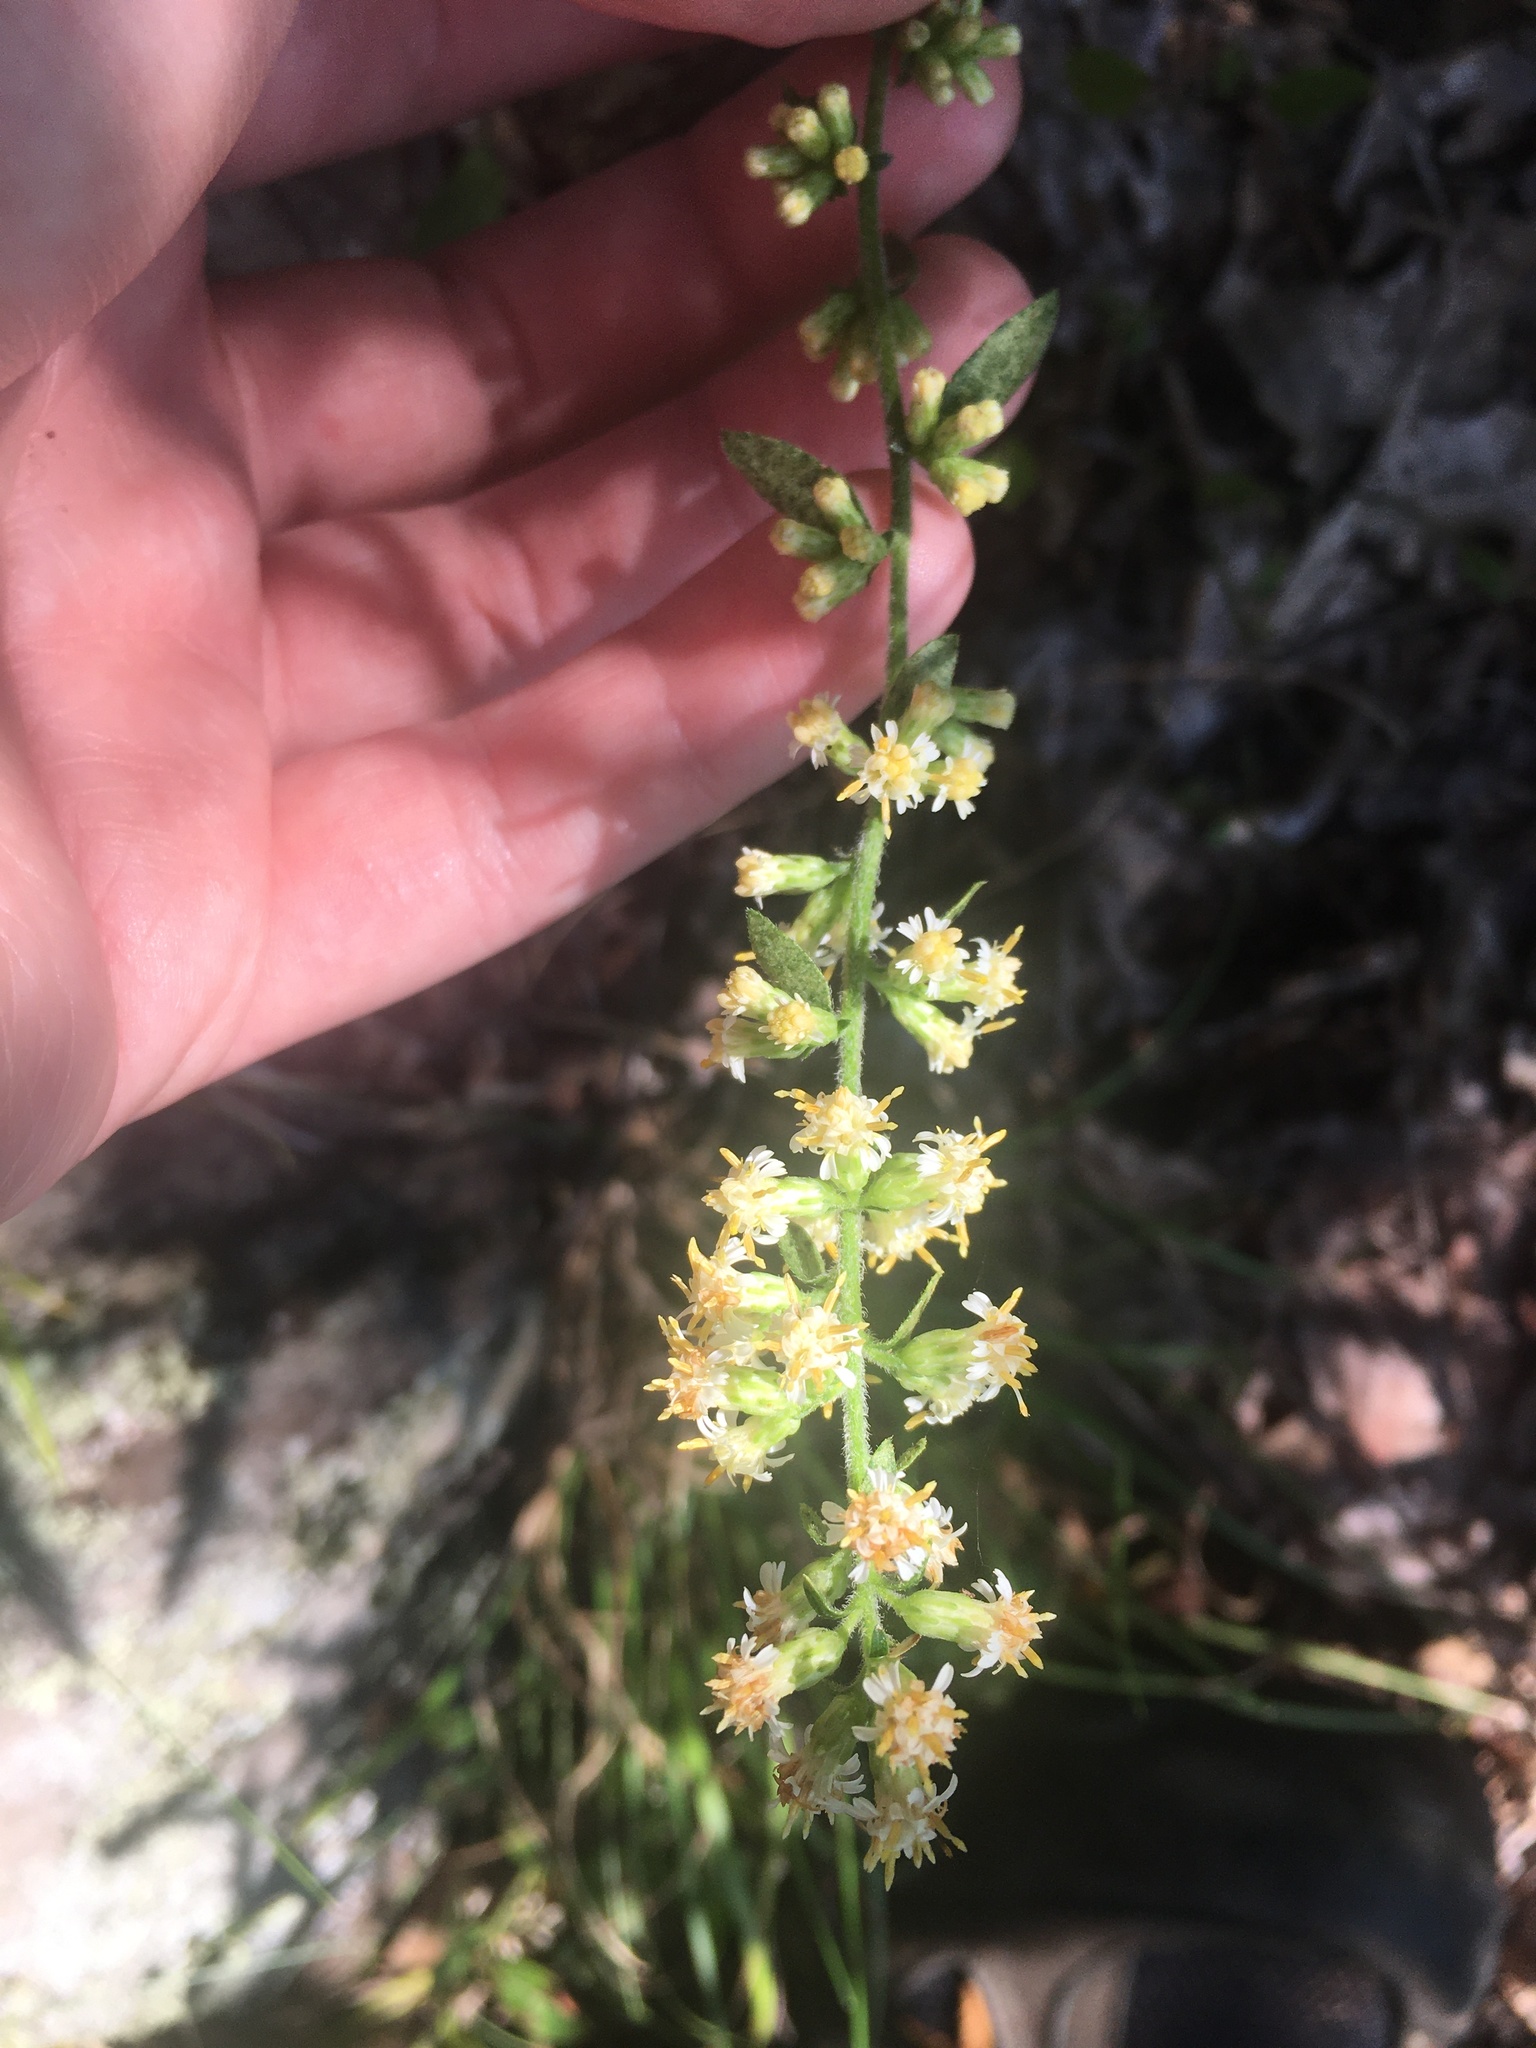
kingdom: Plantae
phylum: Tracheophyta
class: Magnoliopsida
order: Asterales
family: Asteraceae
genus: Solidago
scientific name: Solidago bicolor
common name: Silverrod
